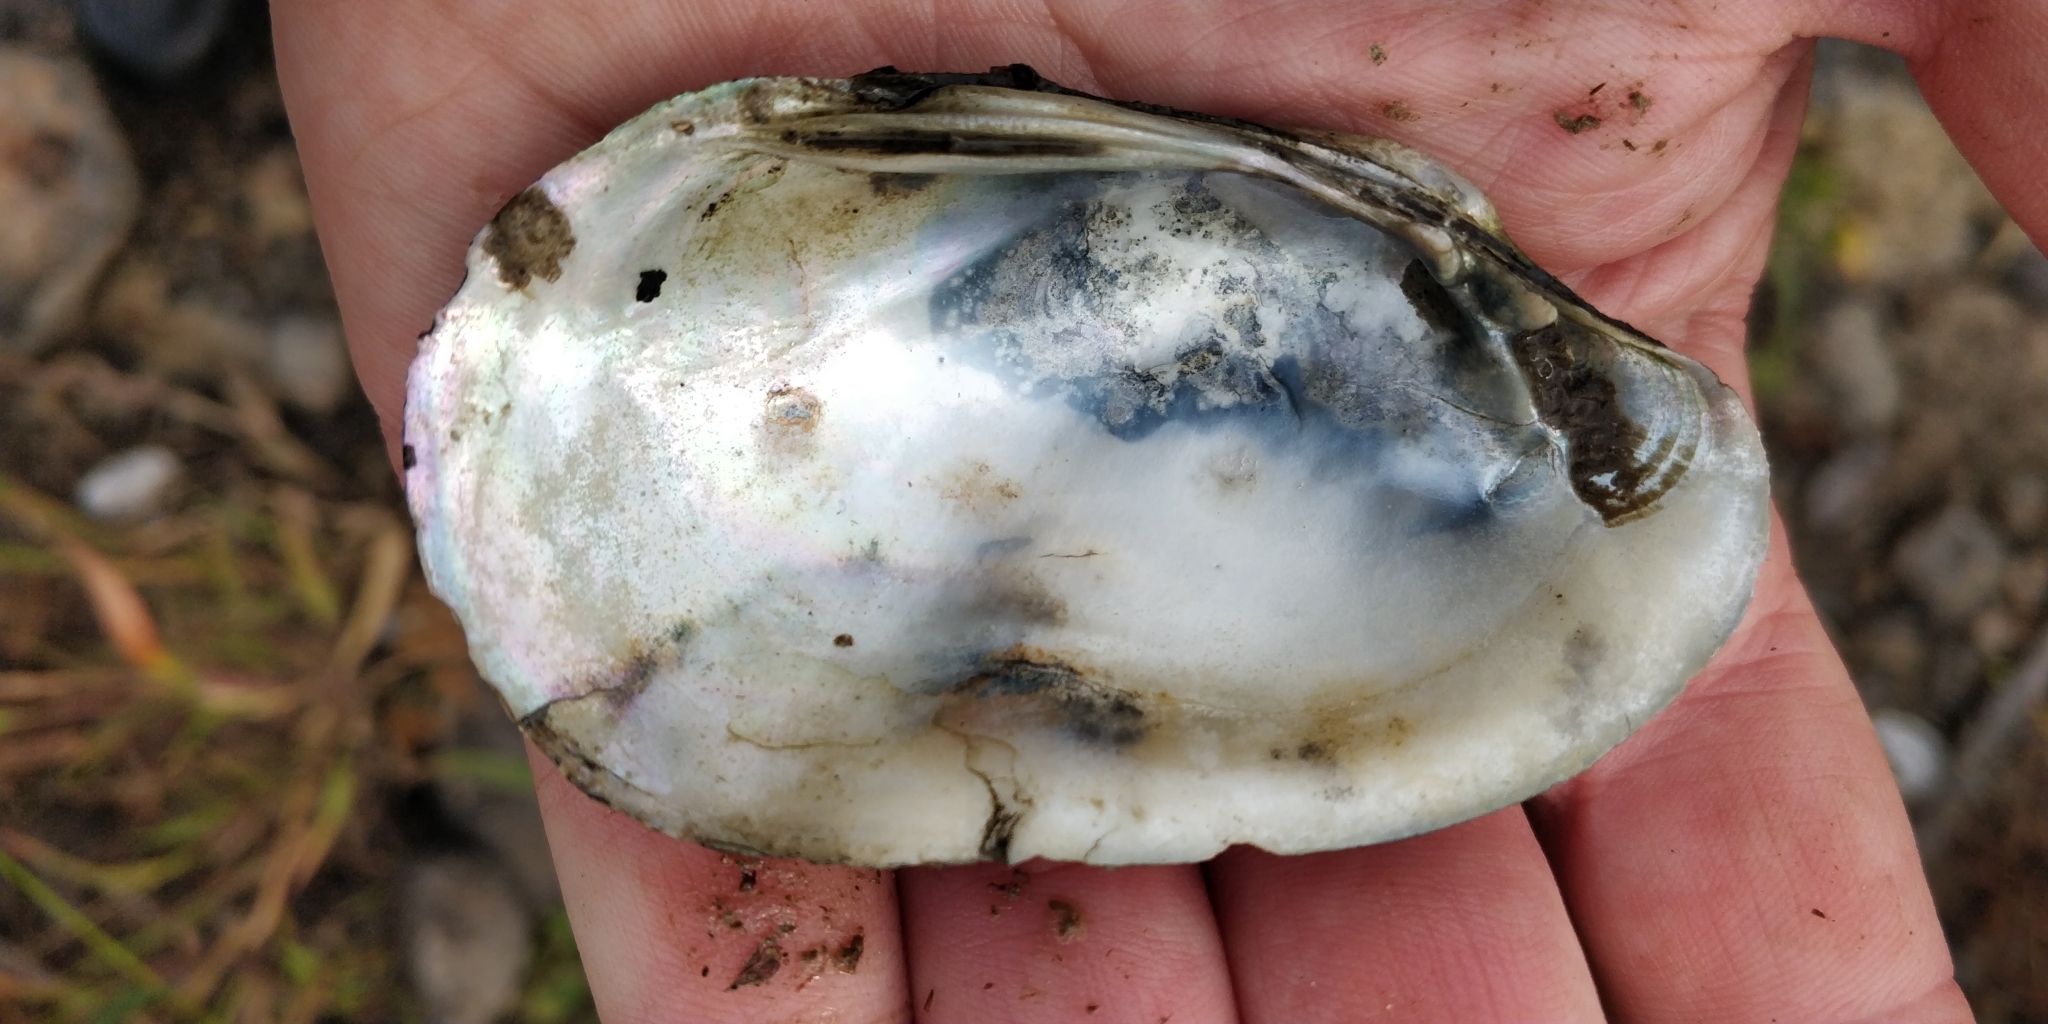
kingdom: Animalia
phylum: Mollusca
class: Bivalvia
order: Unionida
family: Unionidae
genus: Lampsilis
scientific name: Lampsilis siliquoidea
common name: Fatmucket
